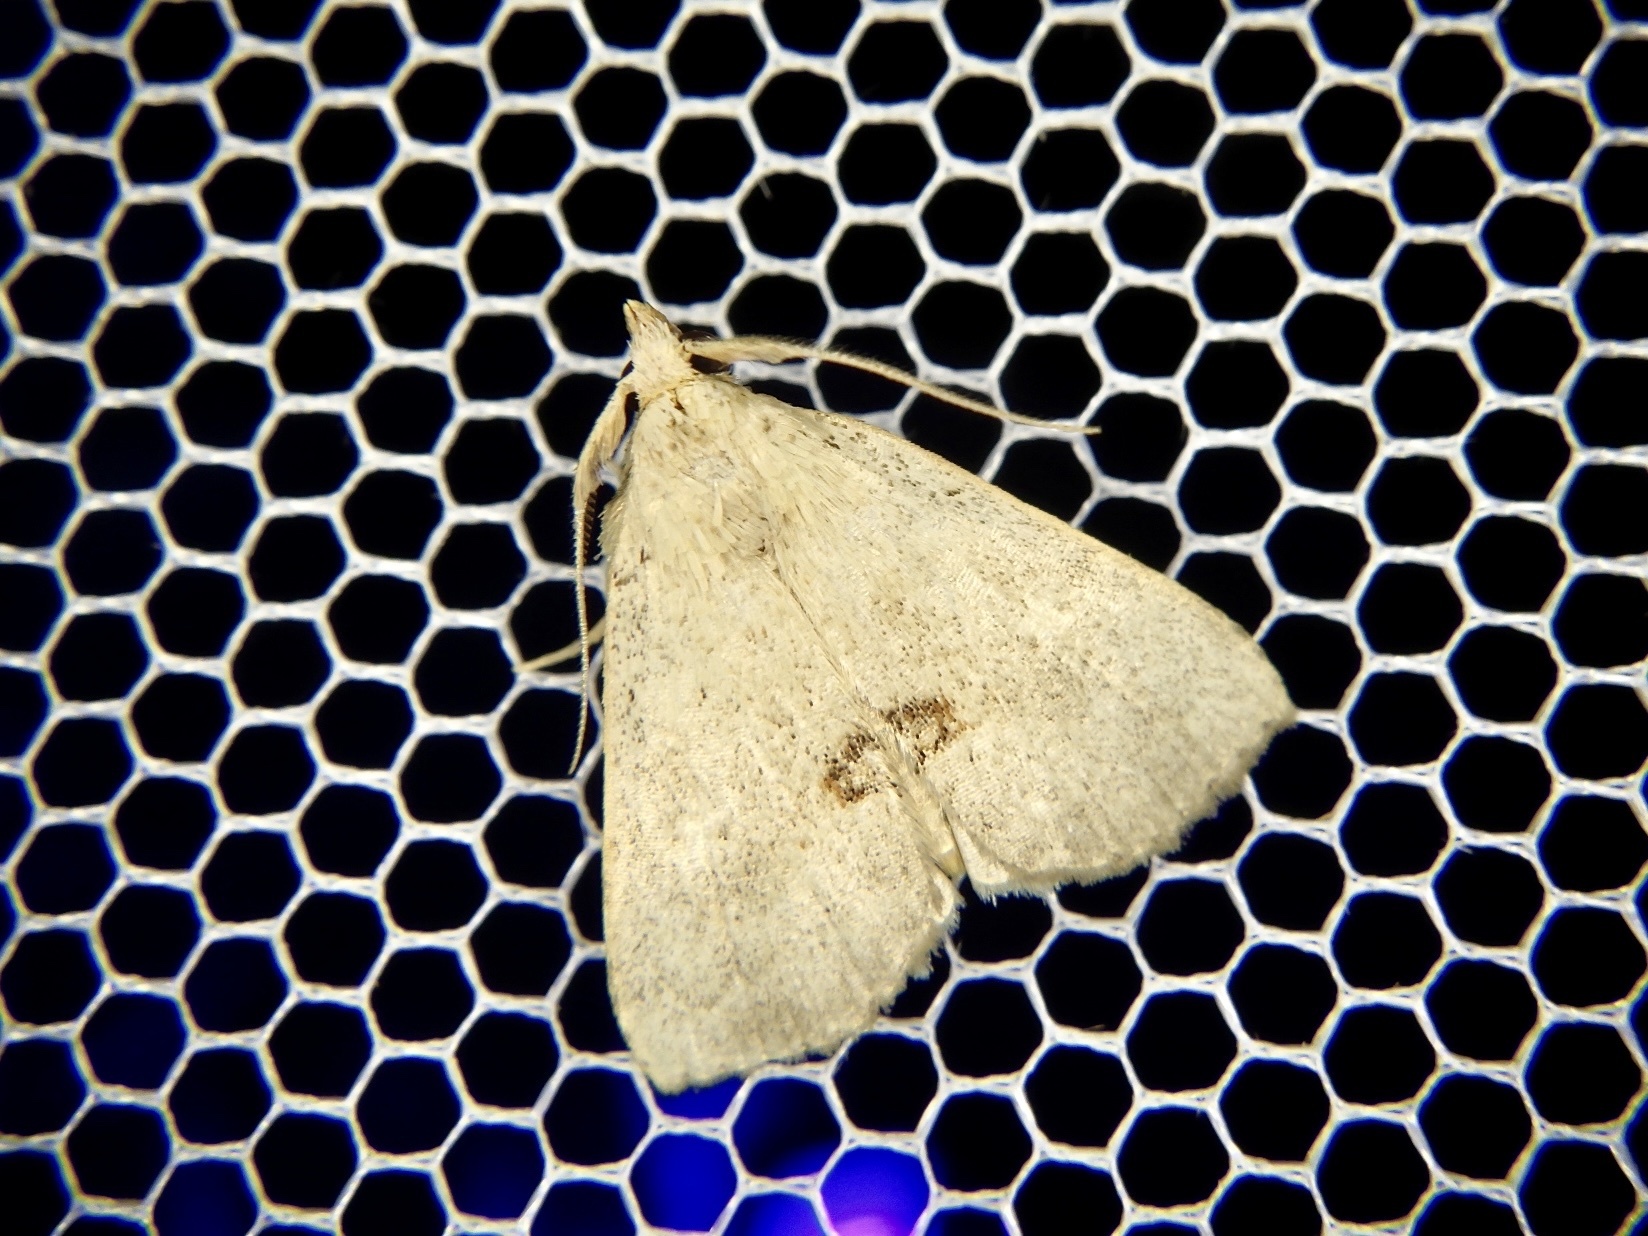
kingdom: Animalia
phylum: Arthropoda
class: Insecta
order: Lepidoptera
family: Erebidae
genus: Gesonia
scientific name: Gesonia fallax
